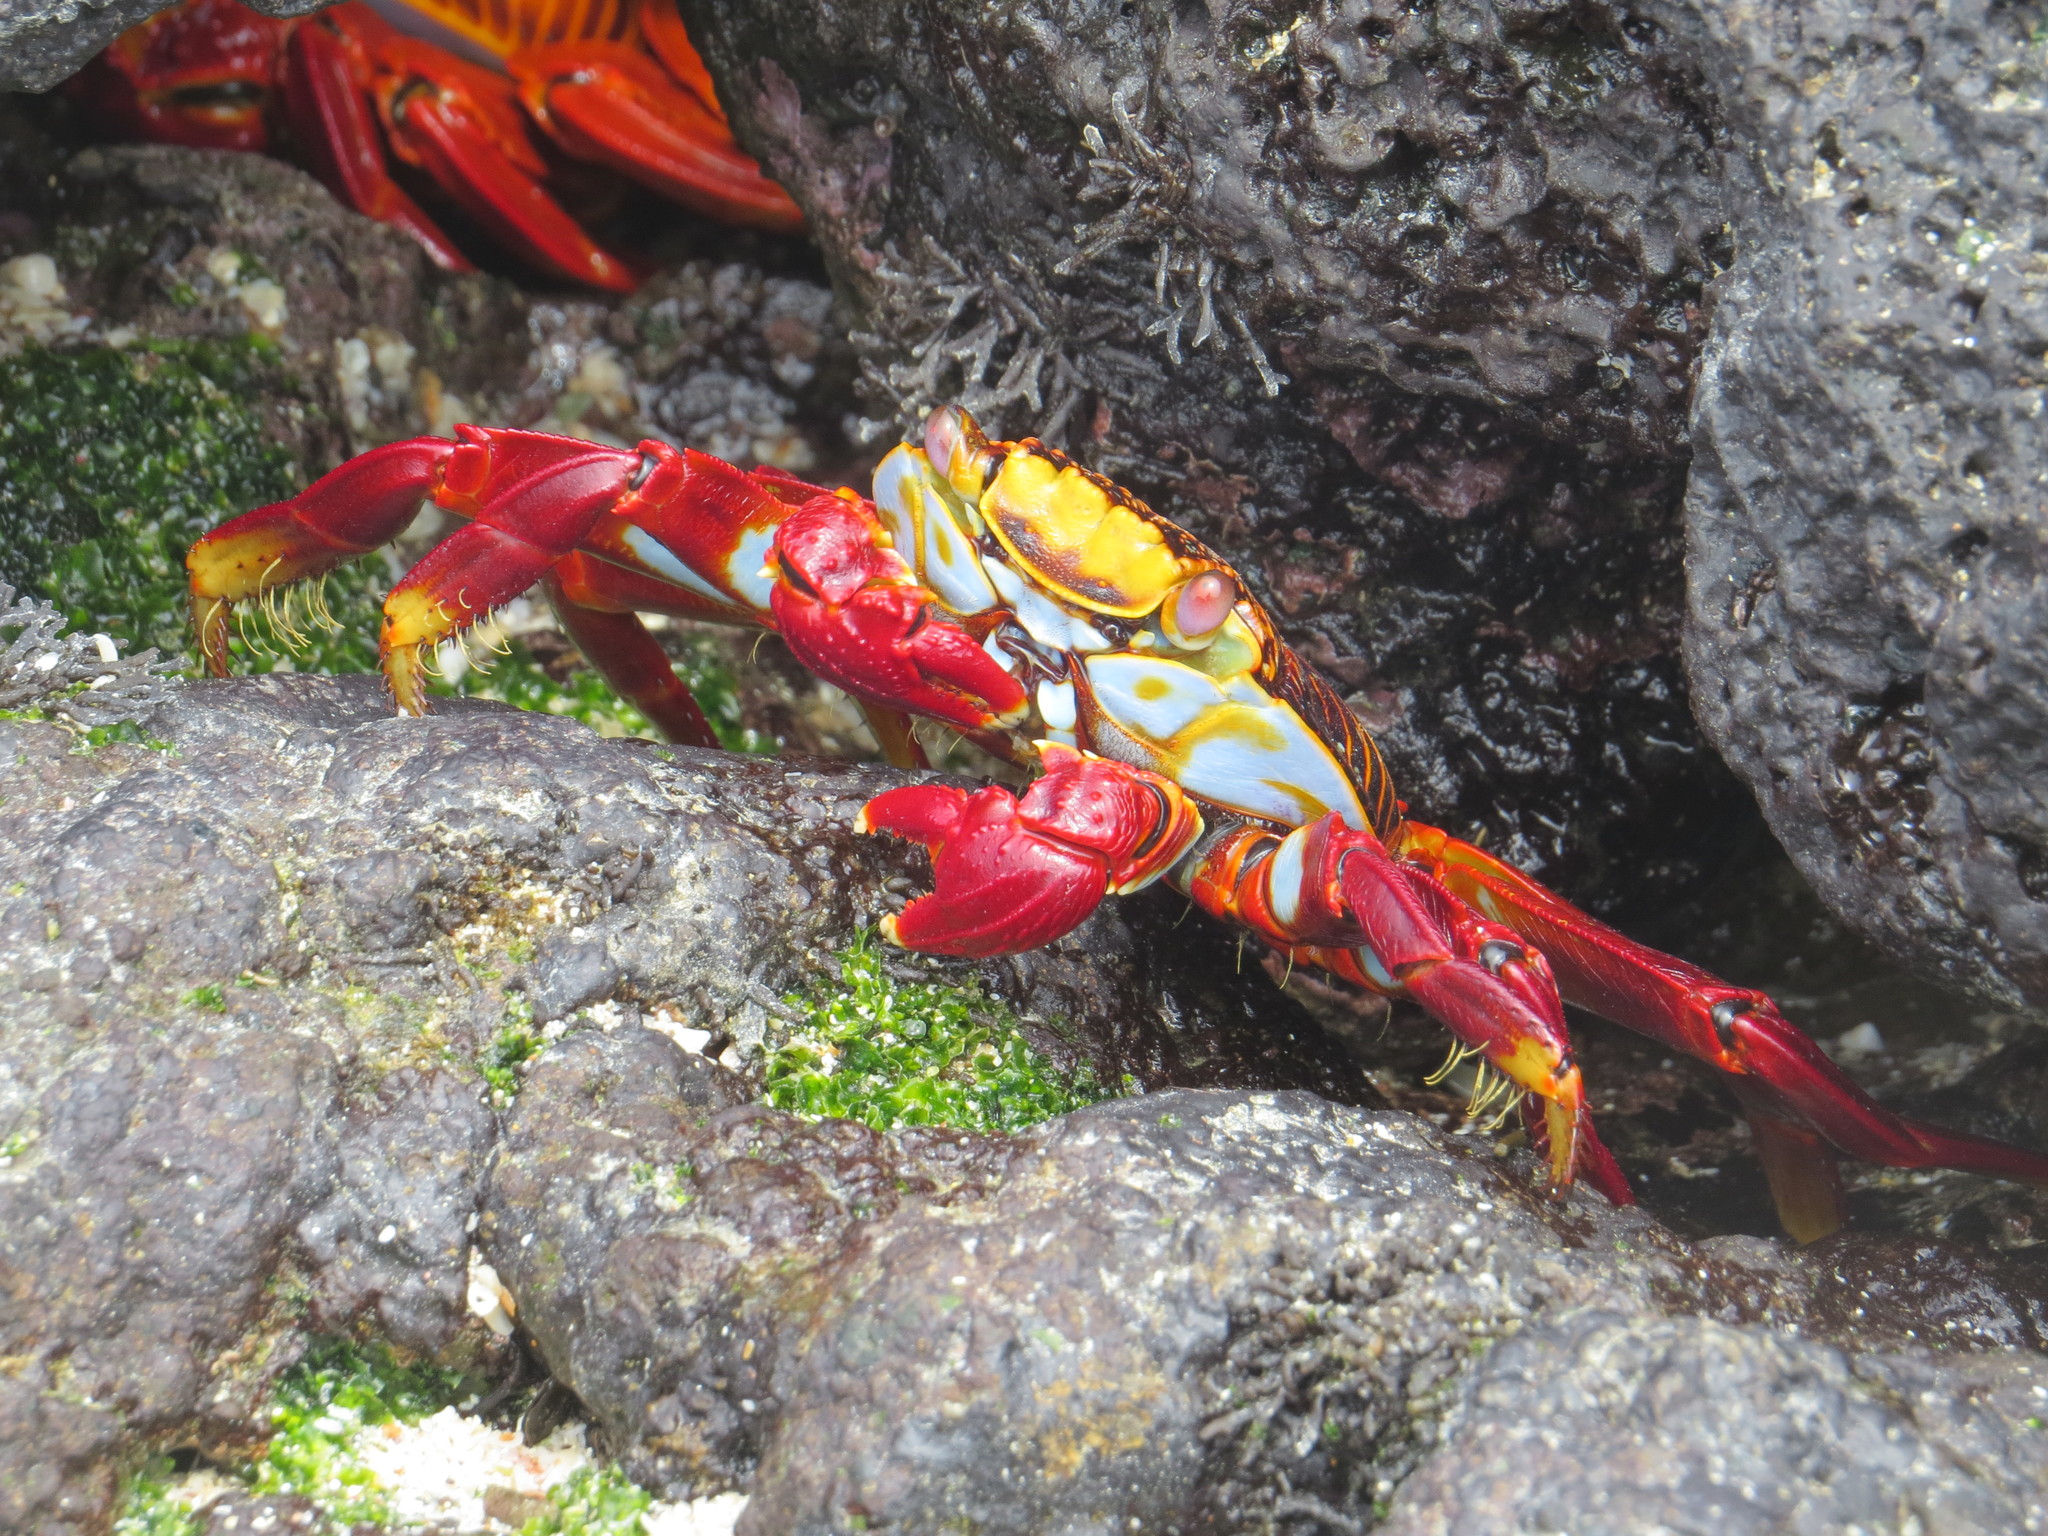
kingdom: Animalia
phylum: Arthropoda
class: Malacostraca
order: Decapoda
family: Grapsidae
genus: Grapsus
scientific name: Grapsus grapsus
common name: Sally lightfoot
